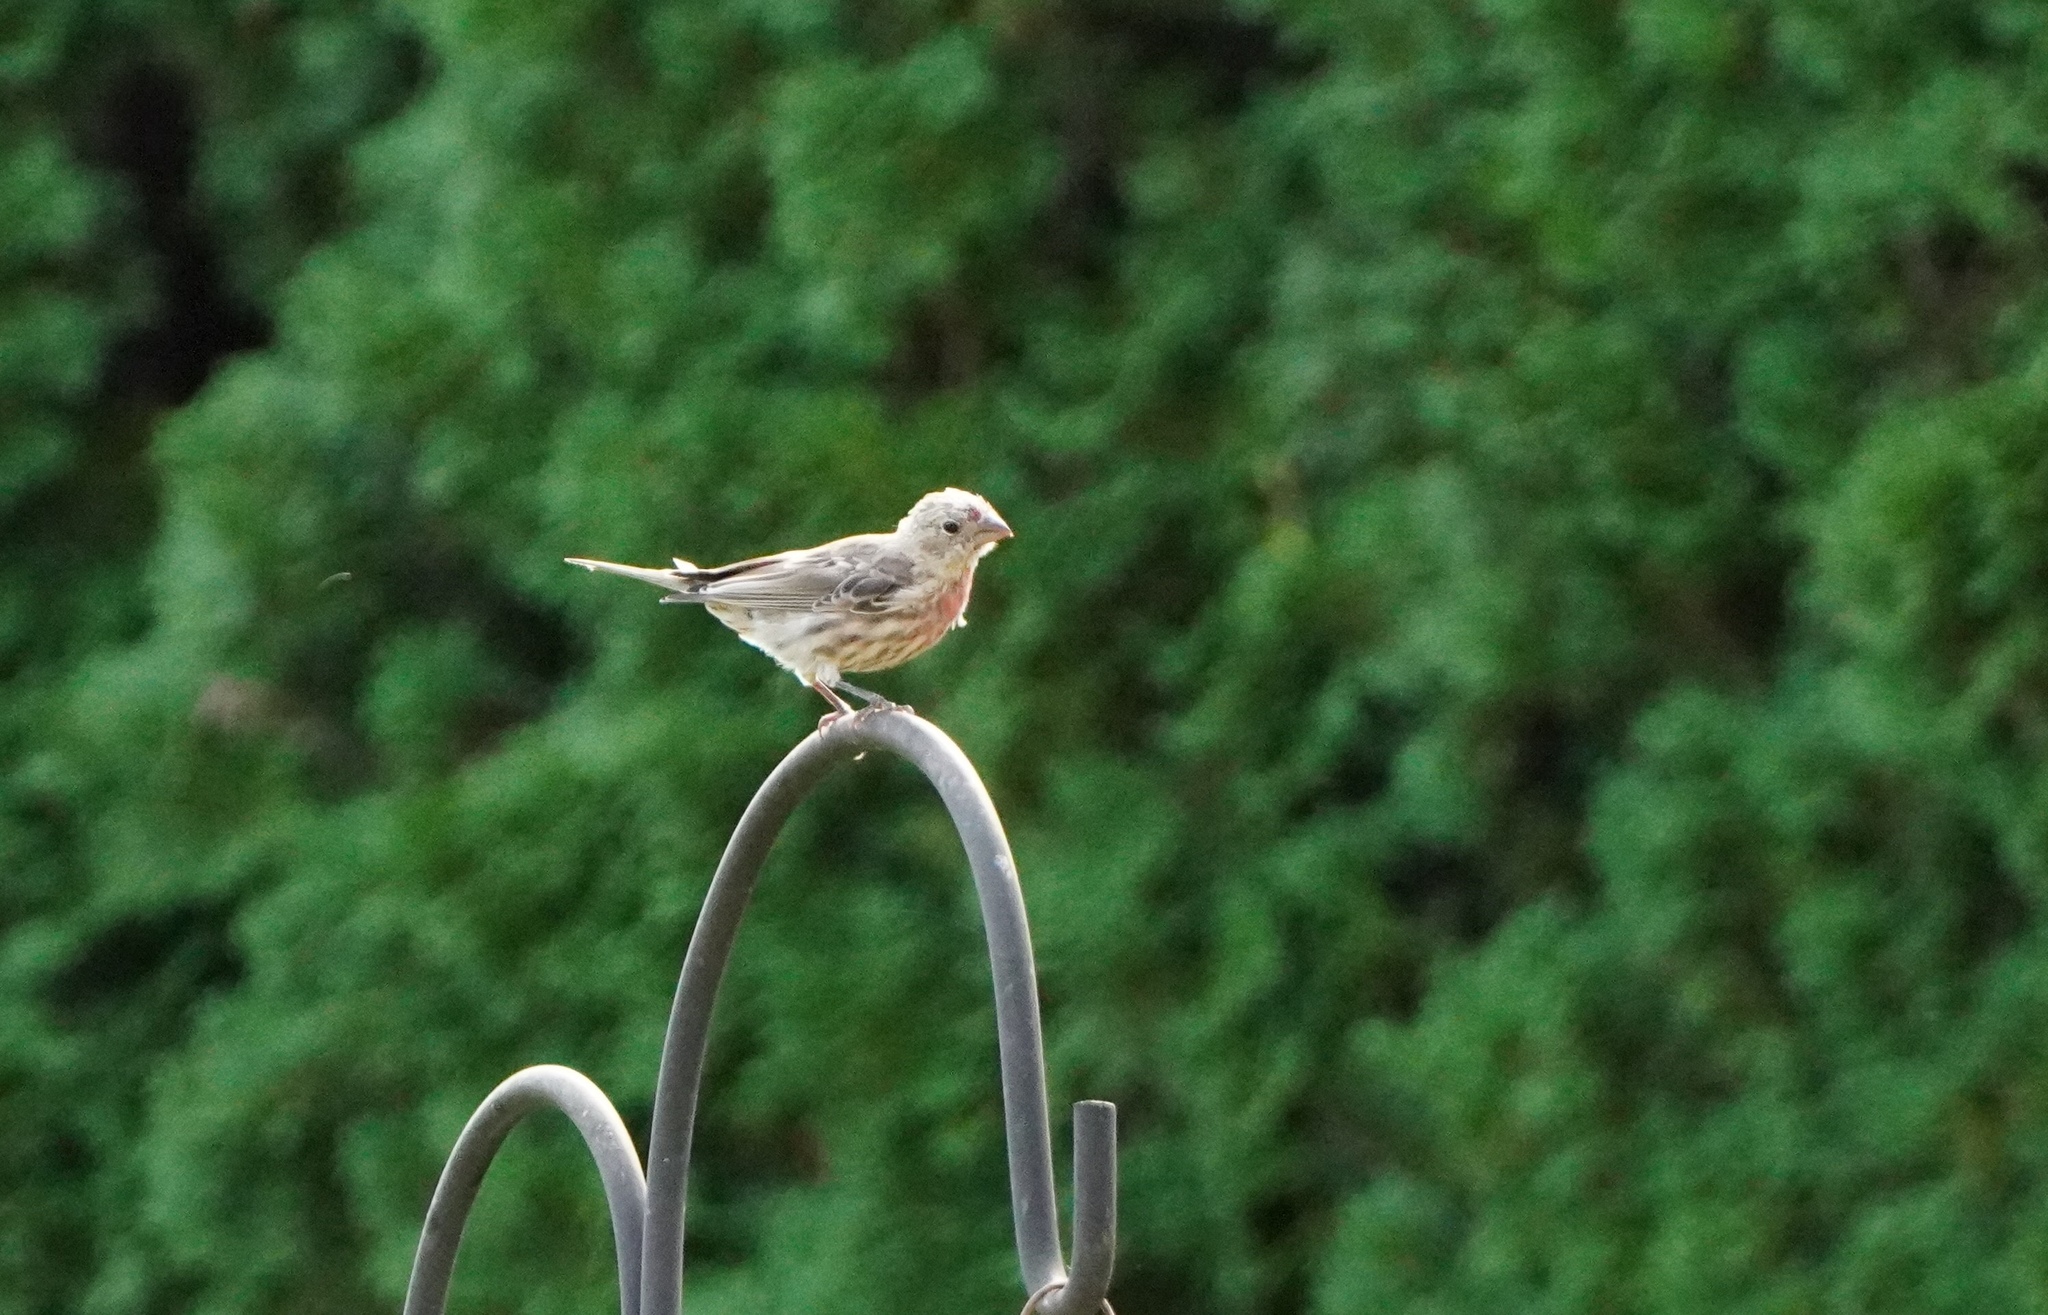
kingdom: Animalia
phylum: Chordata
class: Aves
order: Passeriformes
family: Fringillidae
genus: Haemorhous
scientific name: Haemorhous mexicanus
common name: House finch
